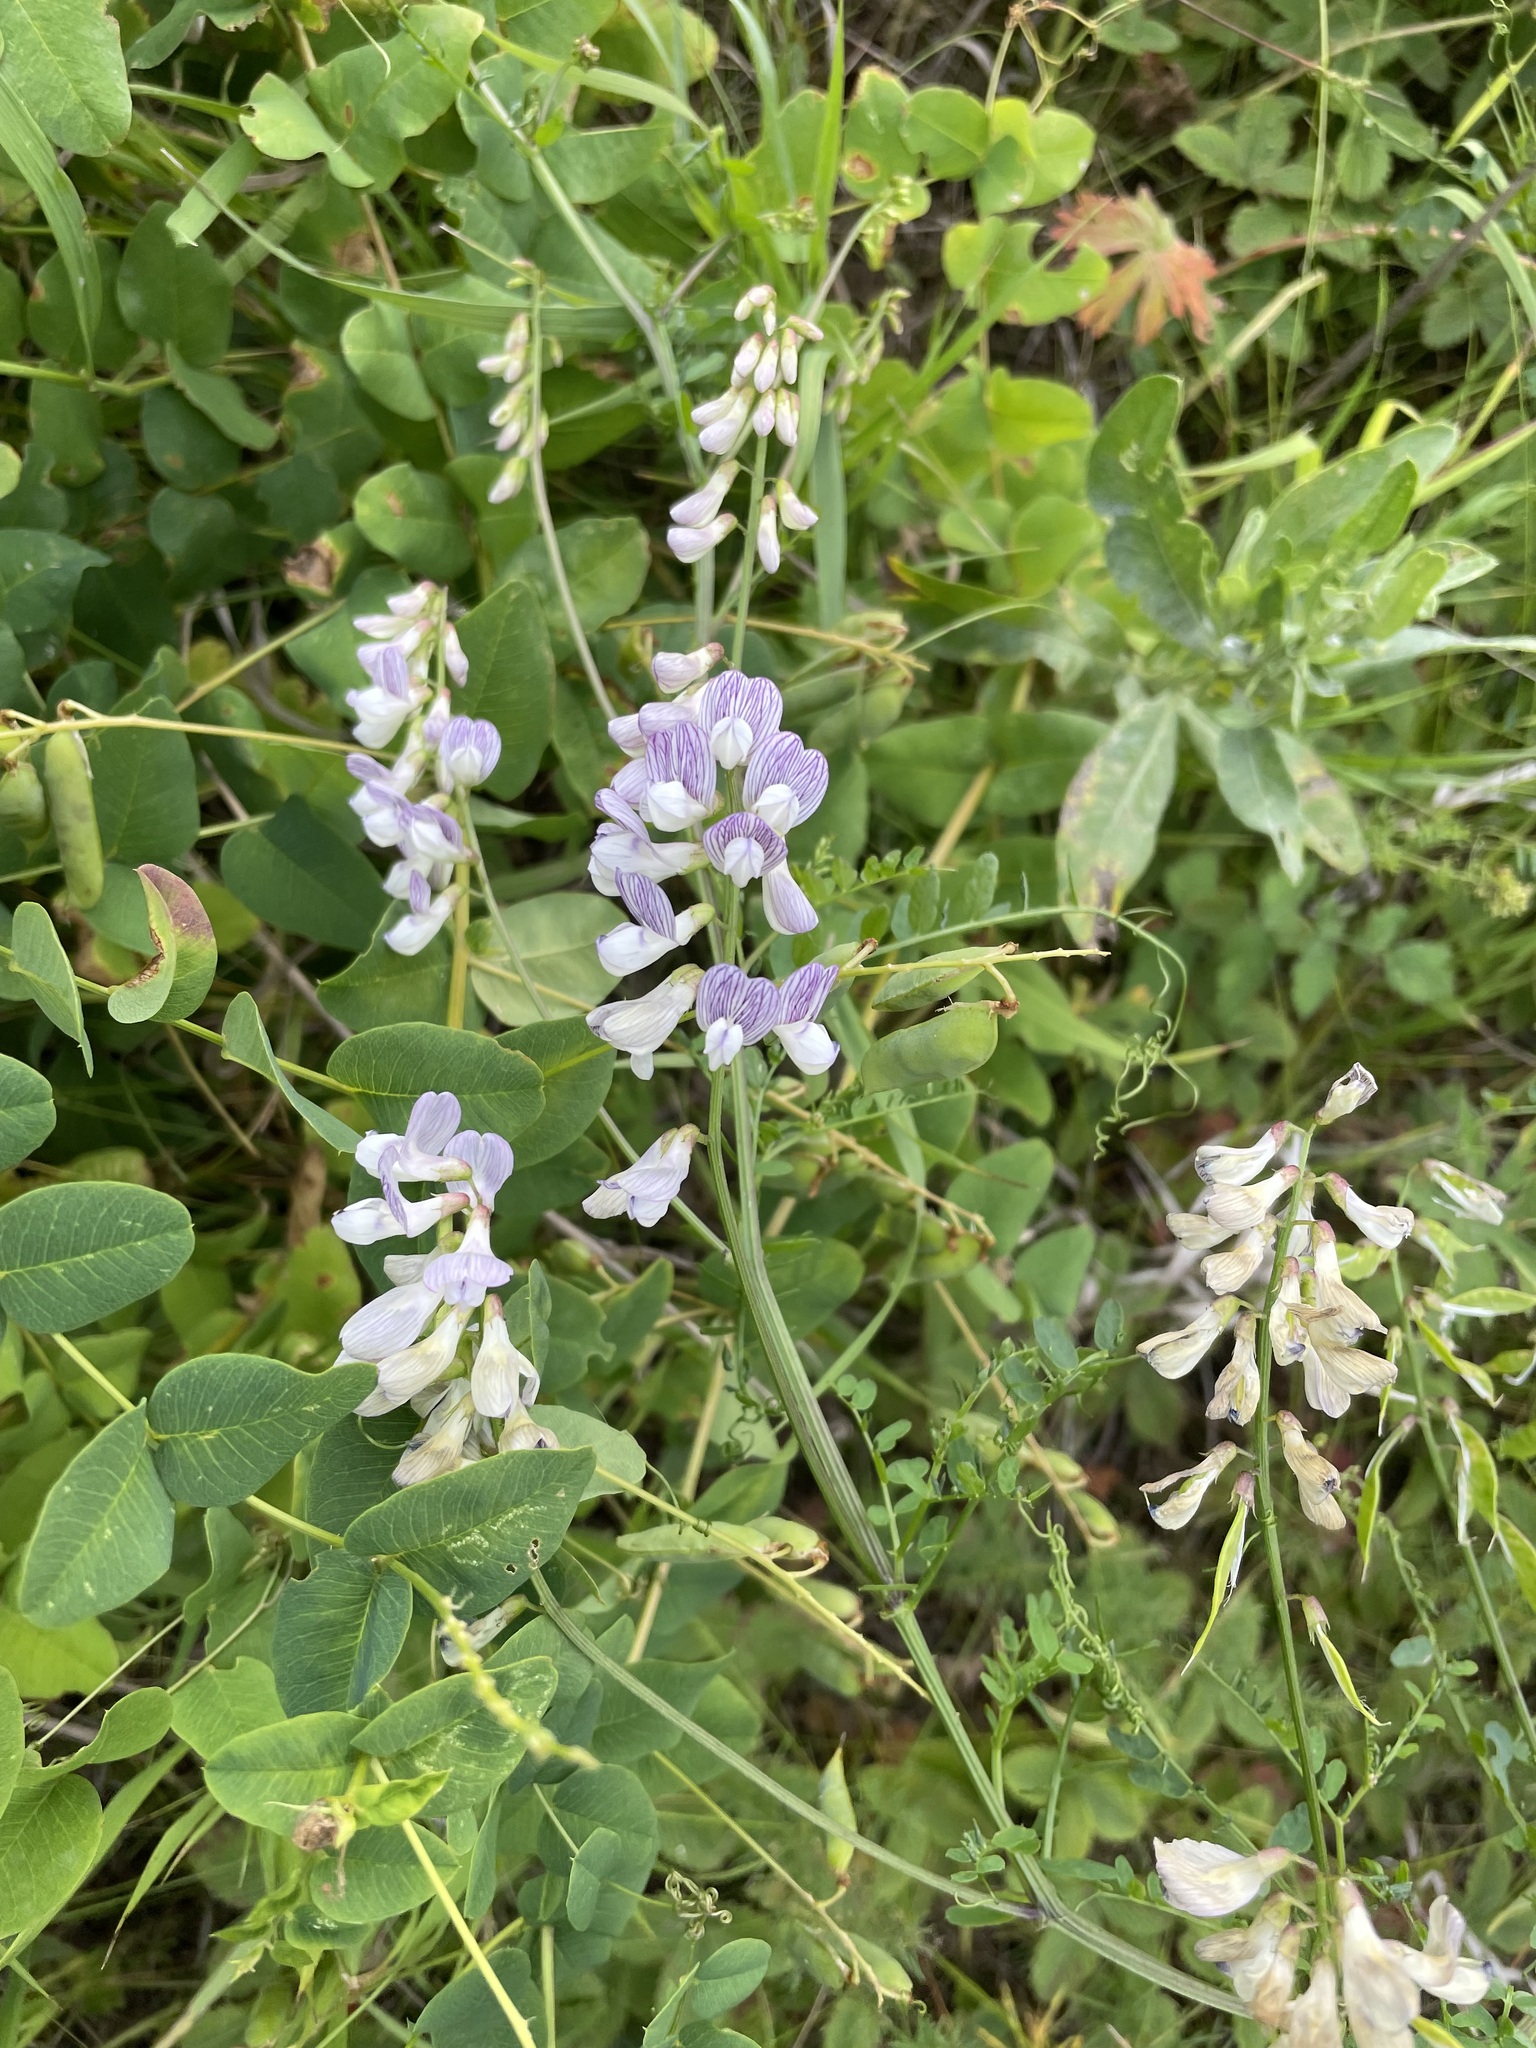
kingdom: Plantae
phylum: Tracheophyta
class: Magnoliopsida
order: Fabales
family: Fabaceae
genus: Vicia
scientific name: Vicia sylvatica
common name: Wood vetch
